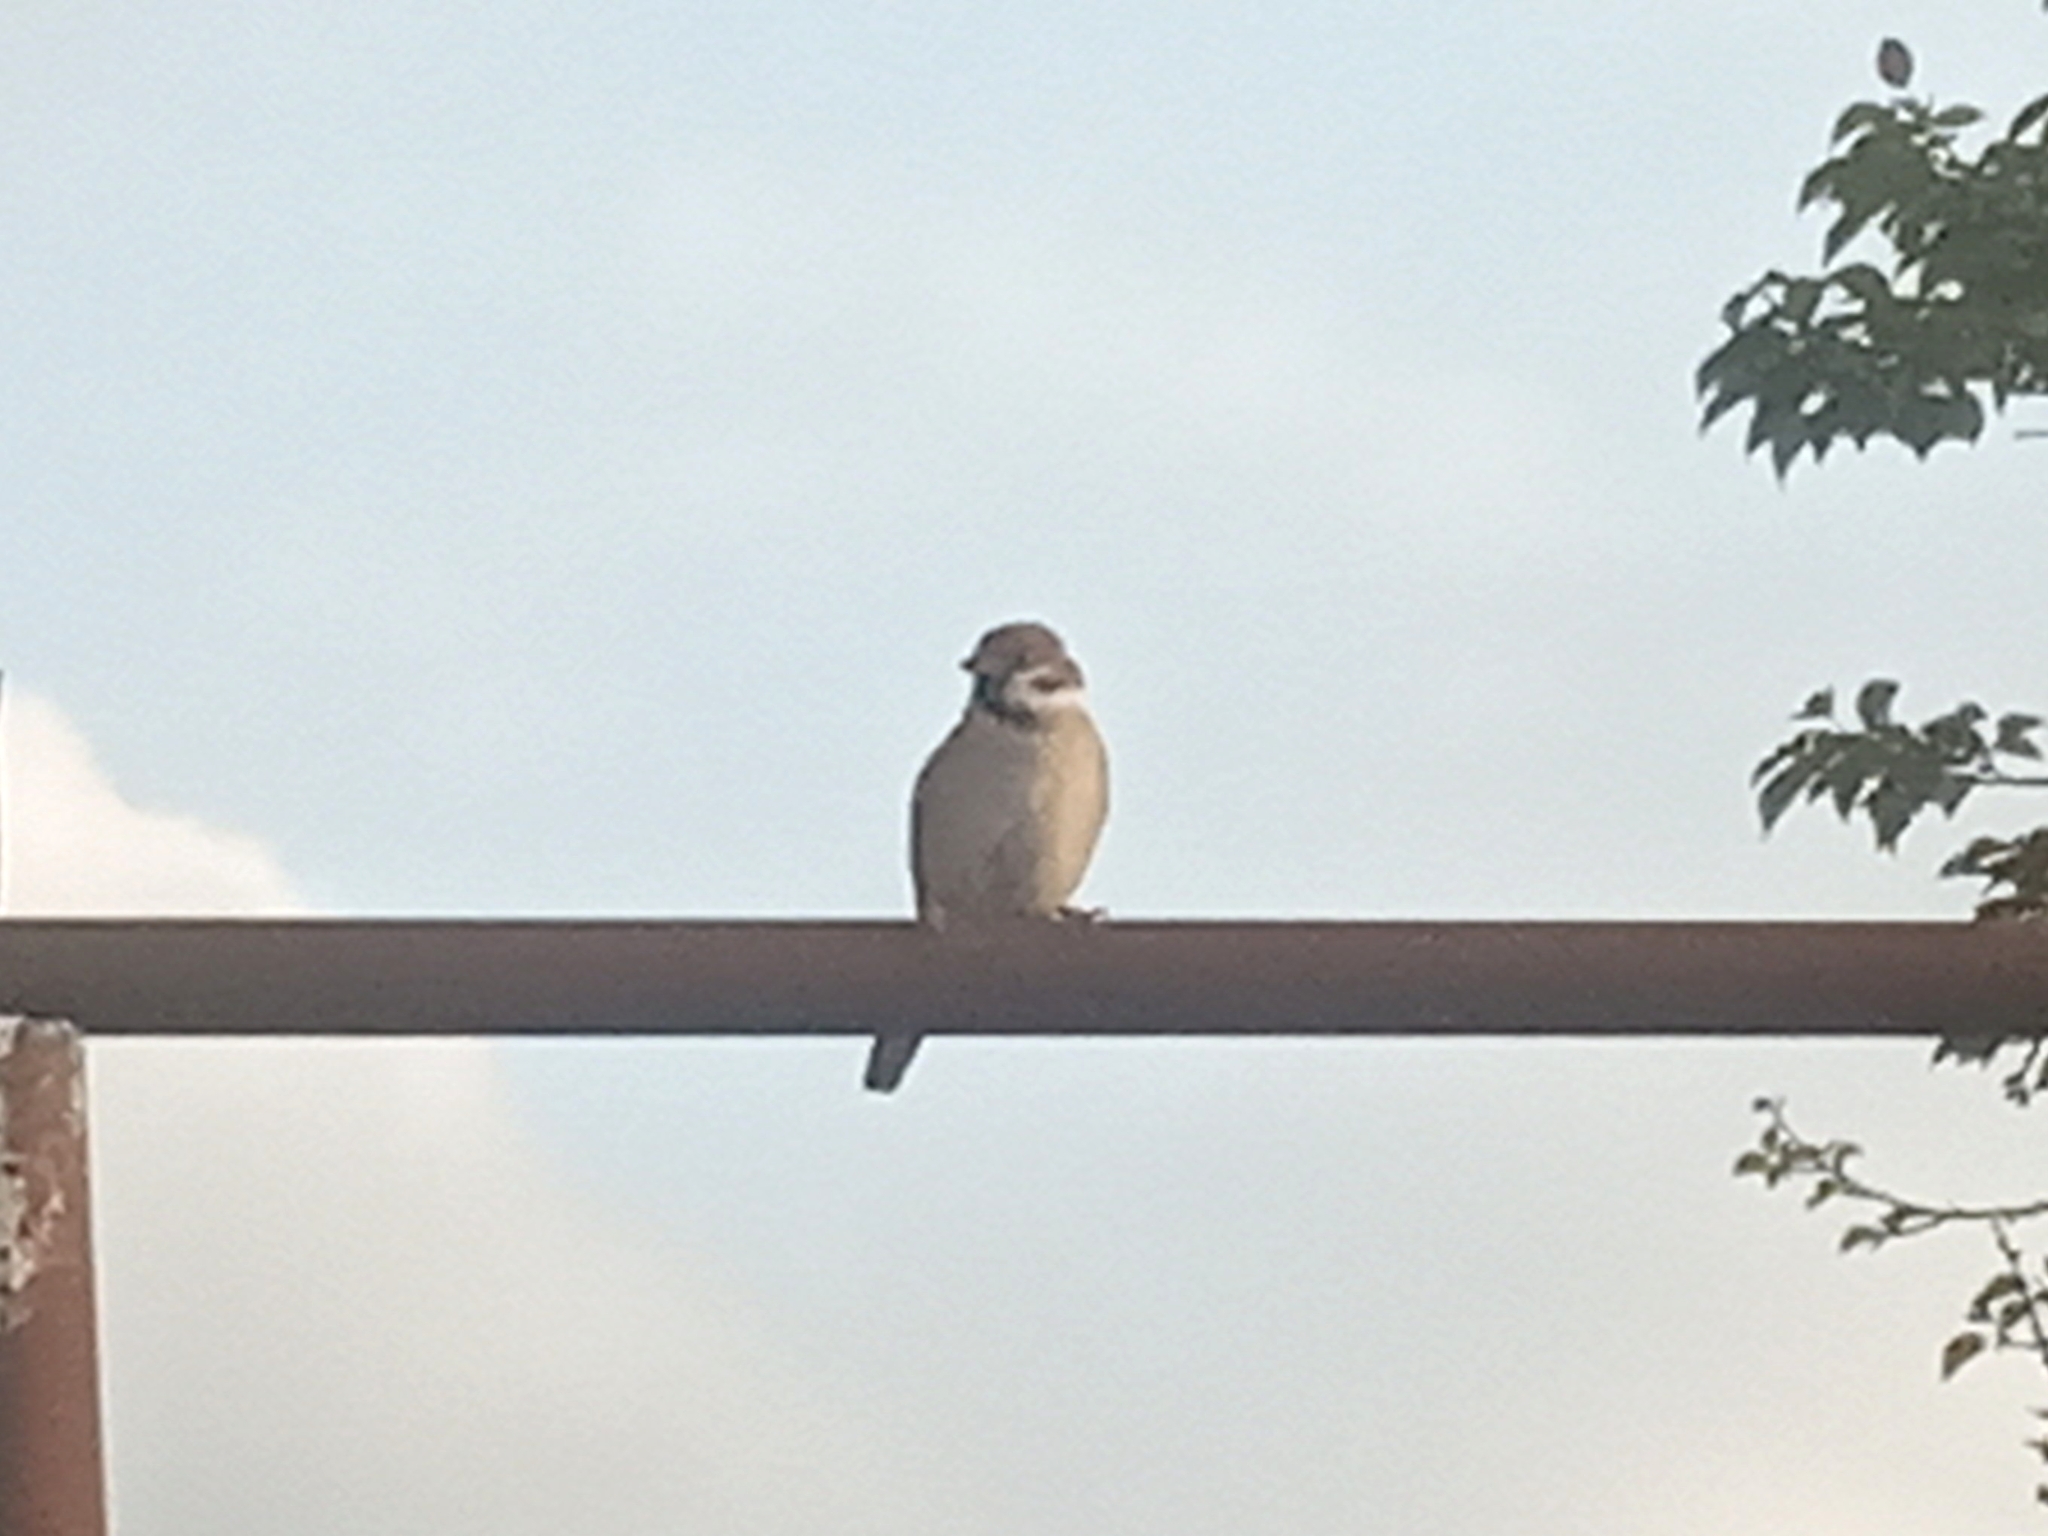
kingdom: Animalia
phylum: Chordata
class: Aves
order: Passeriformes
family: Passeridae
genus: Passer
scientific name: Passer montanus
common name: Eurasian tree sparrow
